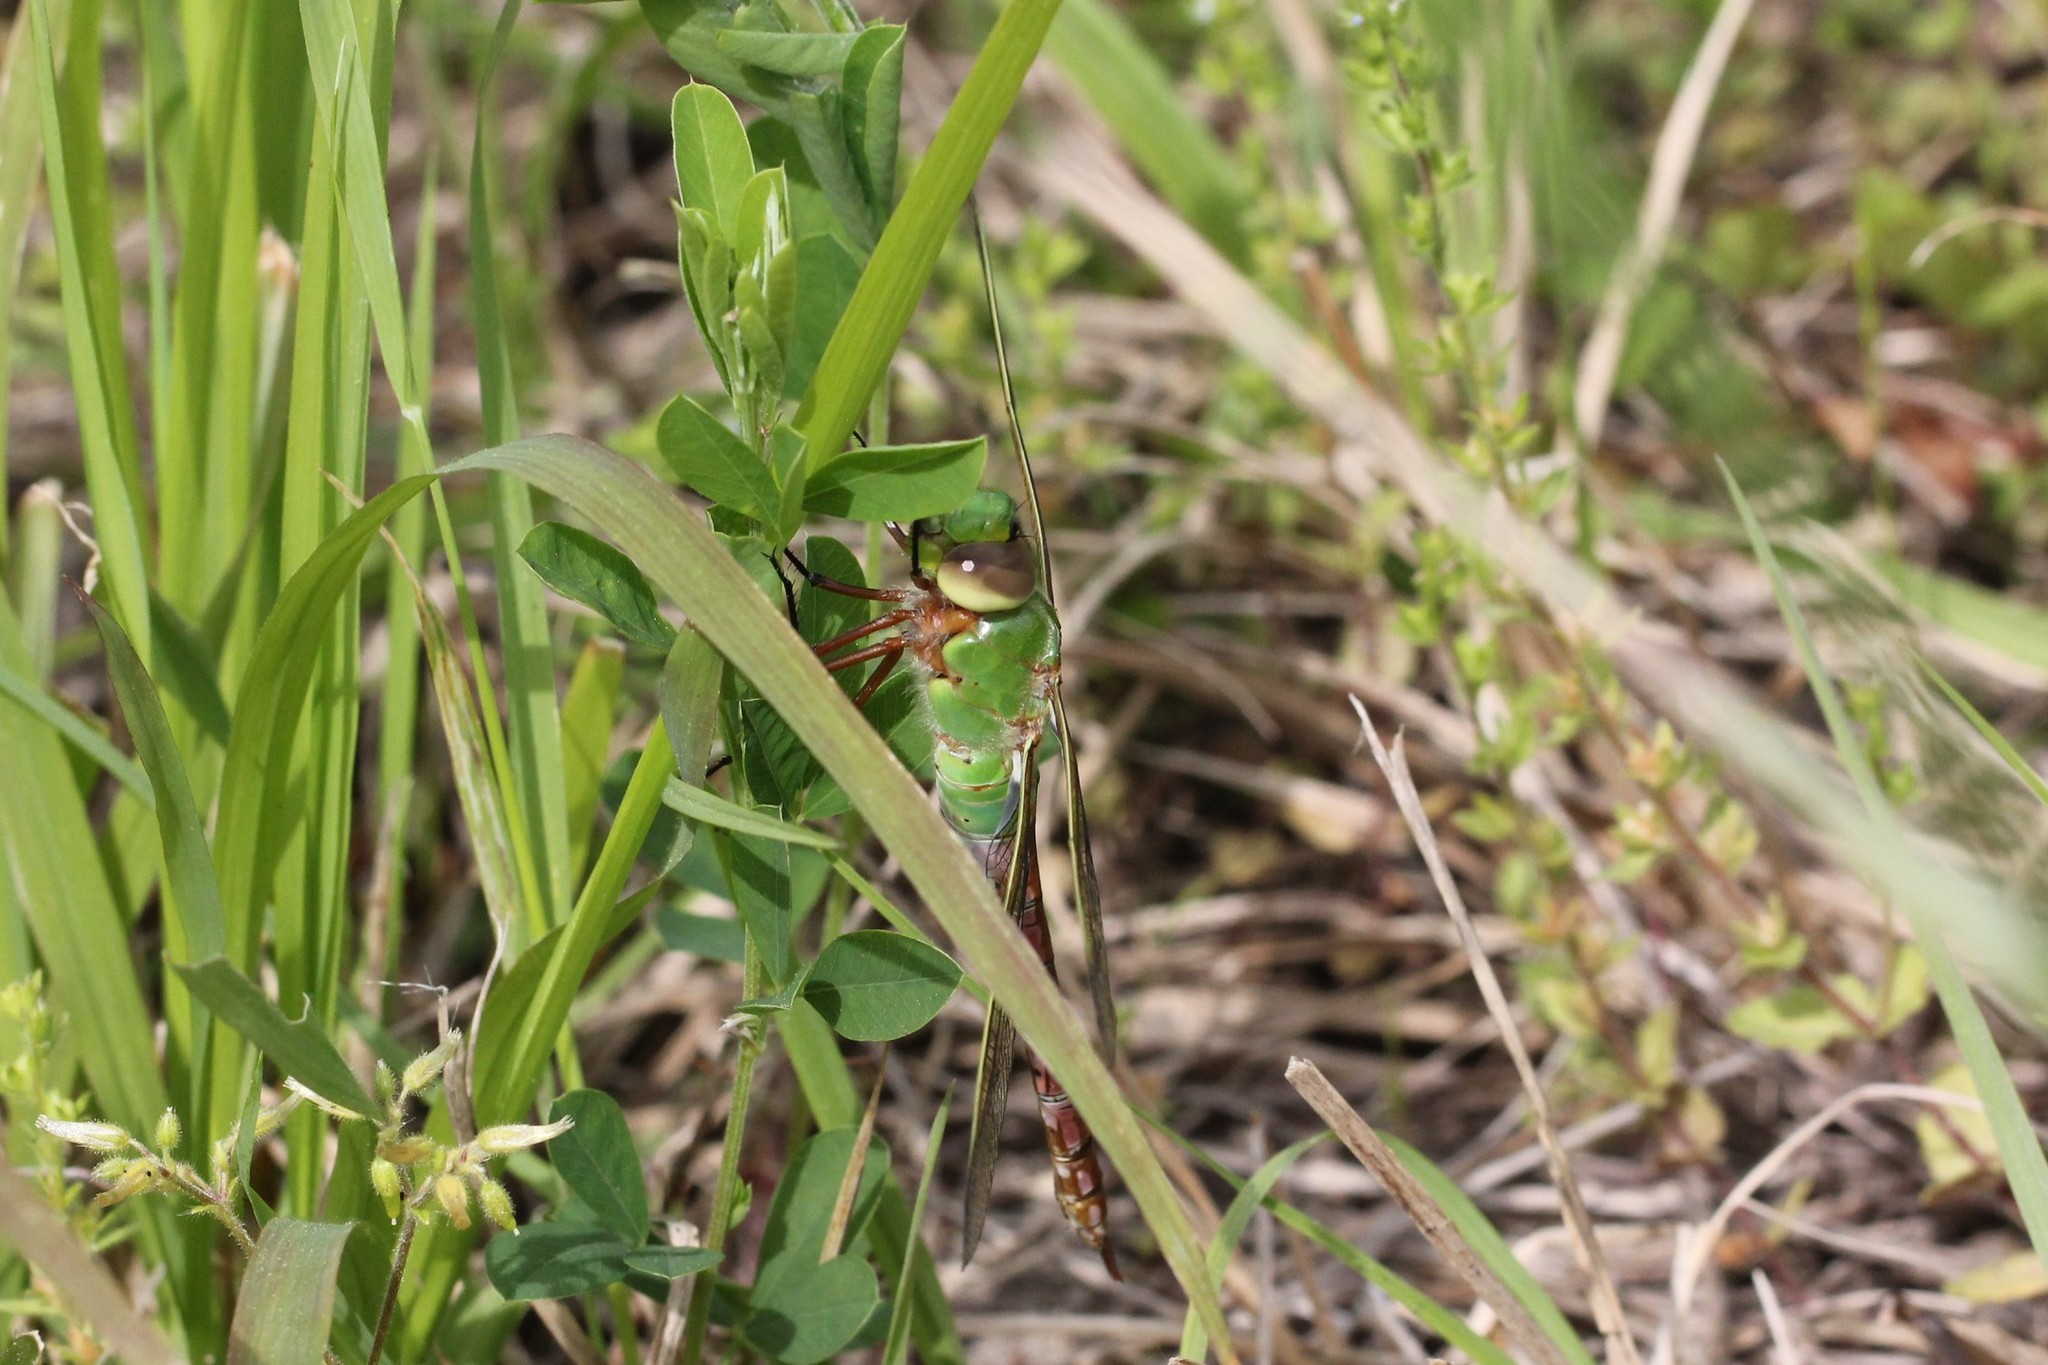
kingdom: Animalia
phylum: Arthropoda
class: Insecta
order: Odonata
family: Aeshnidae
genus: Anax
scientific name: Anax junius
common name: Common green darner
